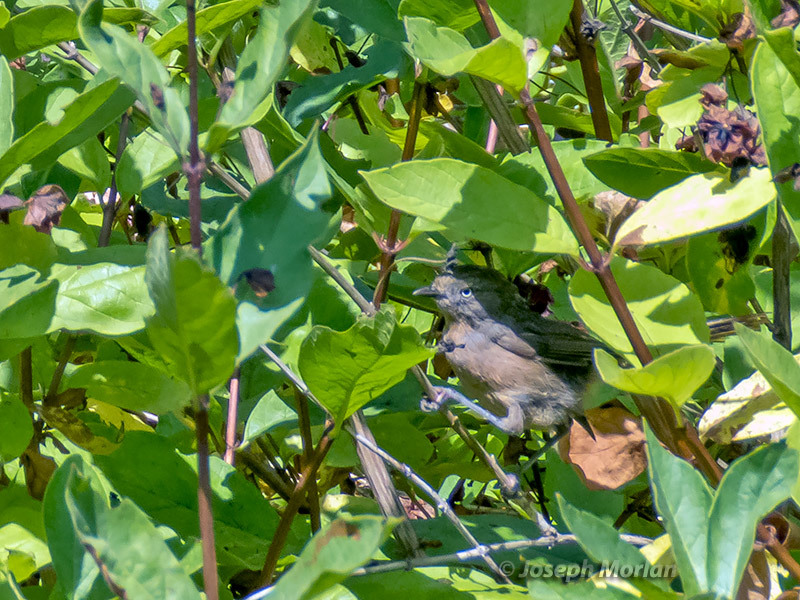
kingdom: Animalia
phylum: Chordata
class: Aves
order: Passeriformes
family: Sylviidae
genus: Chamaea
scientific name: Chamaea fasciata
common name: Wrentit
